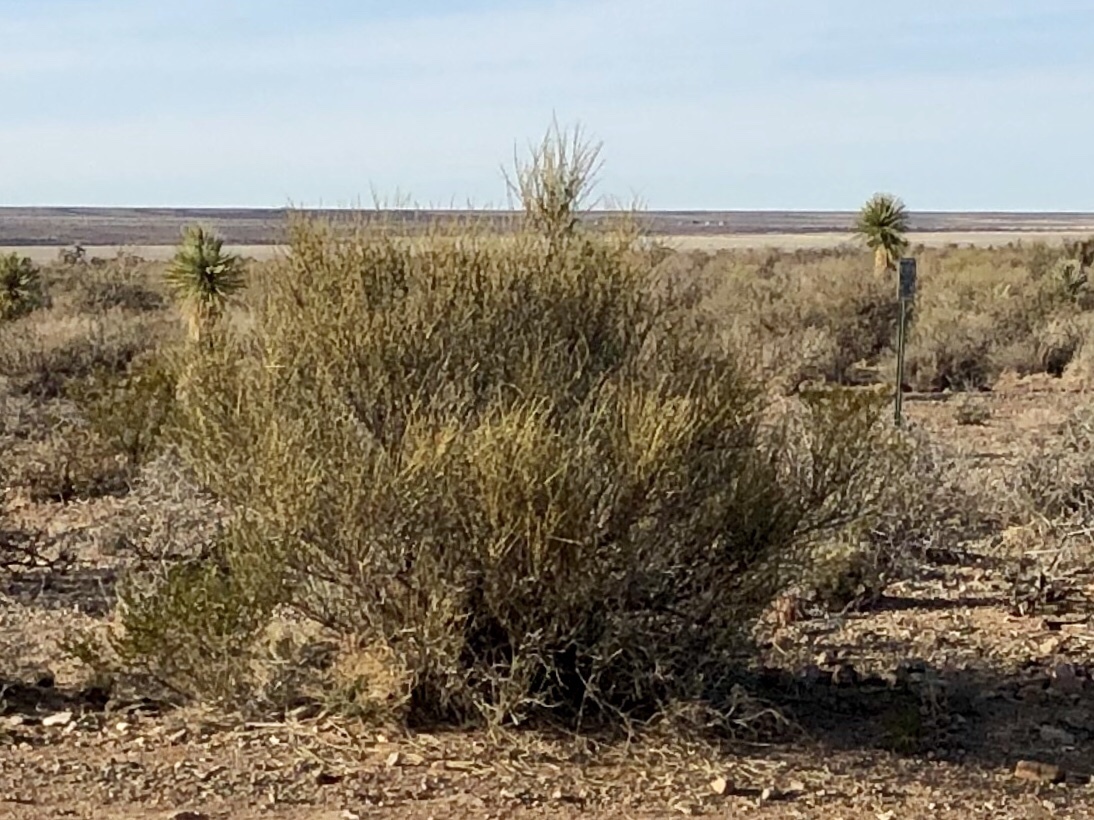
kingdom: Plantae
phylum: Tracheophyta
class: Gnetopsida
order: Ephedrales
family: Ephedraceae
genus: Ephedra
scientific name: Ephedra trifurca
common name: Mexican-tea
